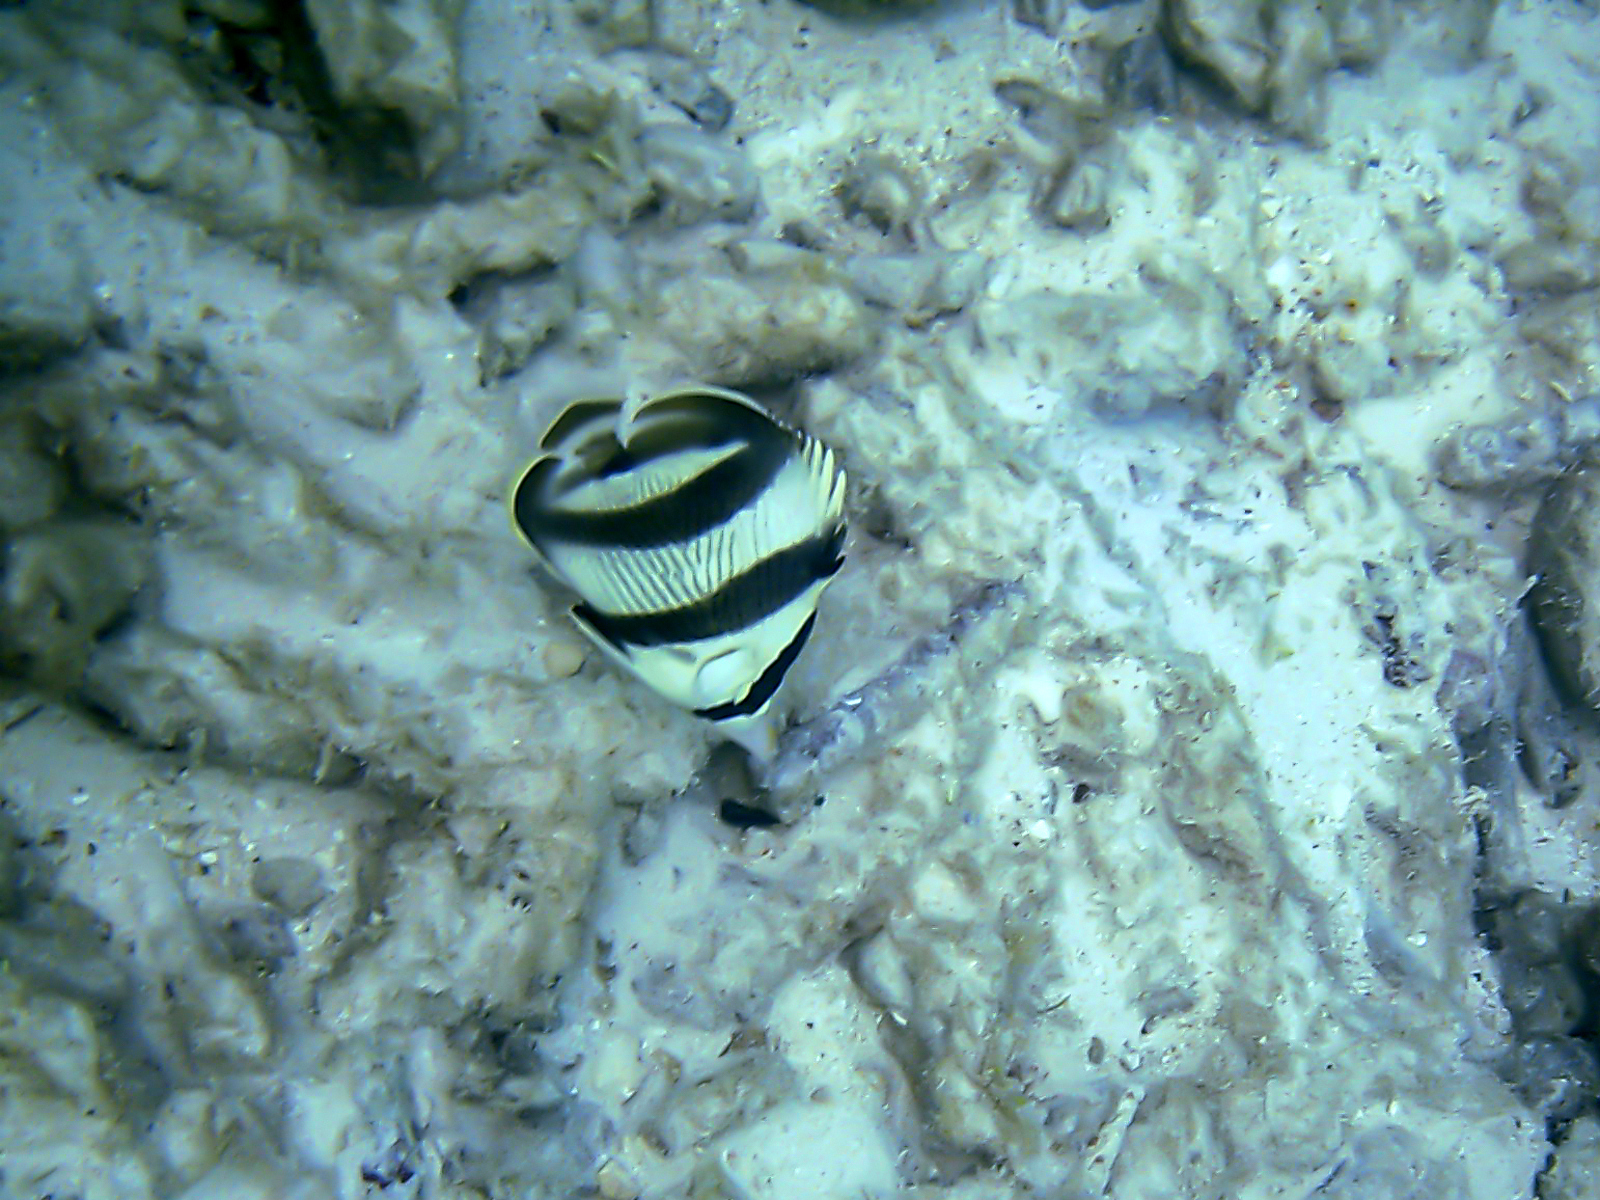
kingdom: Animalia
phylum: Chordata
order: Perciformes
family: Chaetodontidae
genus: Chaetodon
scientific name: Chaetodon striatus
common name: Banded butterflyfish
